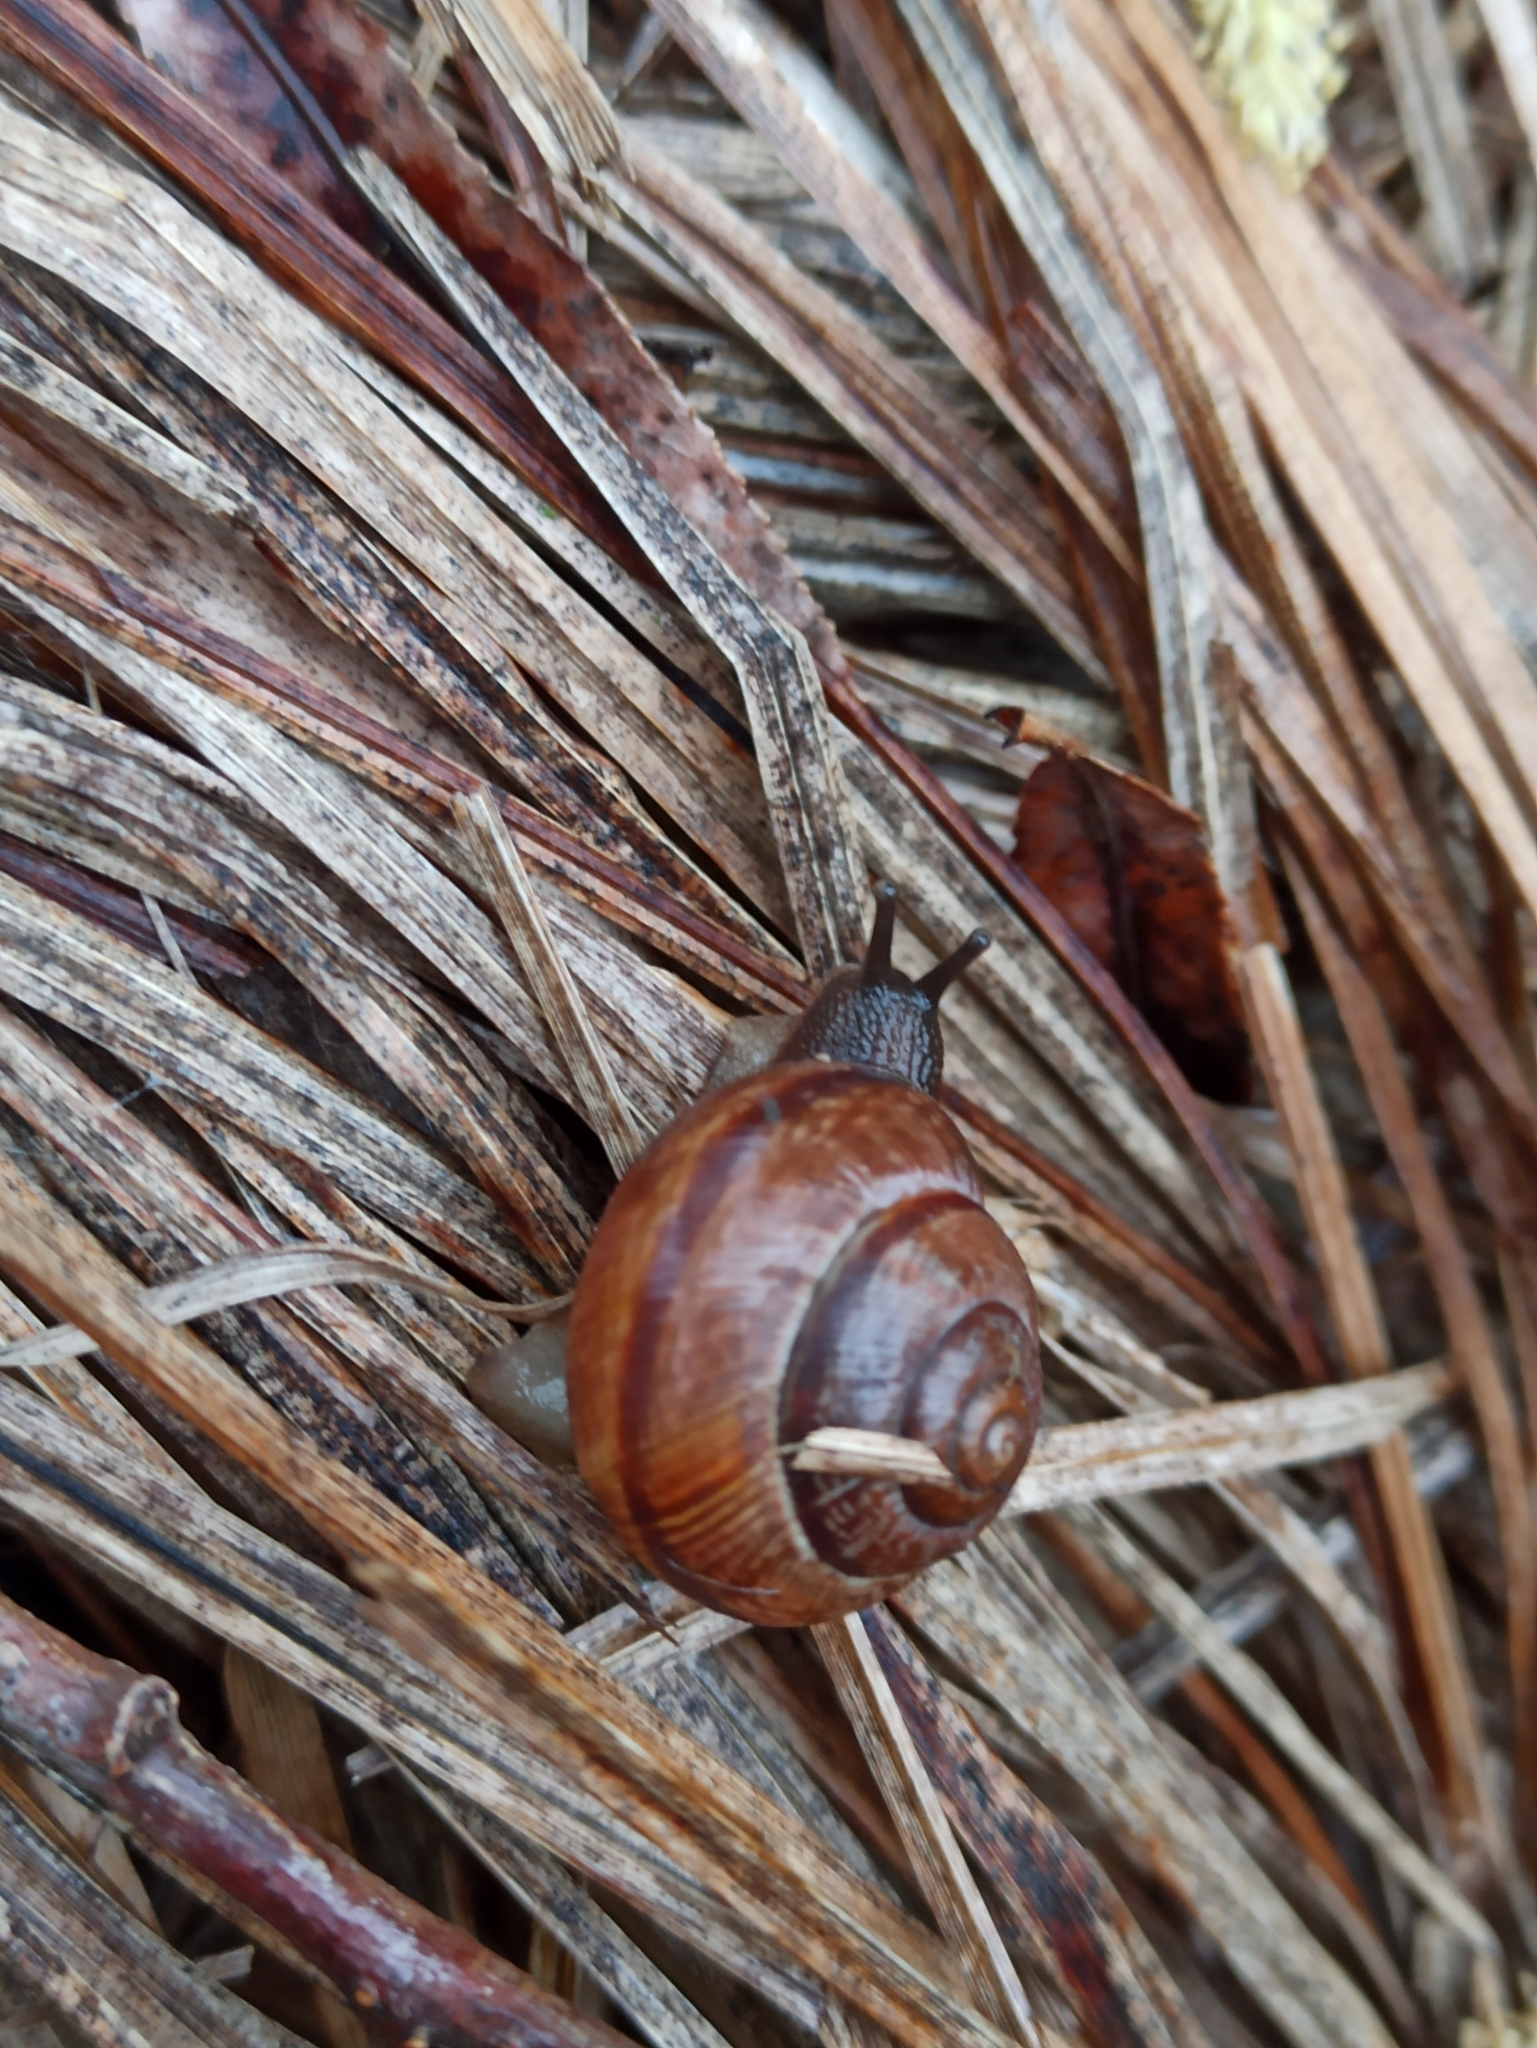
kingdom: Animalia
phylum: Mollusca
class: Gastropoda
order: Stylommatophora
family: Helicidae
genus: Arianta
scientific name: Arianta arbustorum
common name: Copse snail
